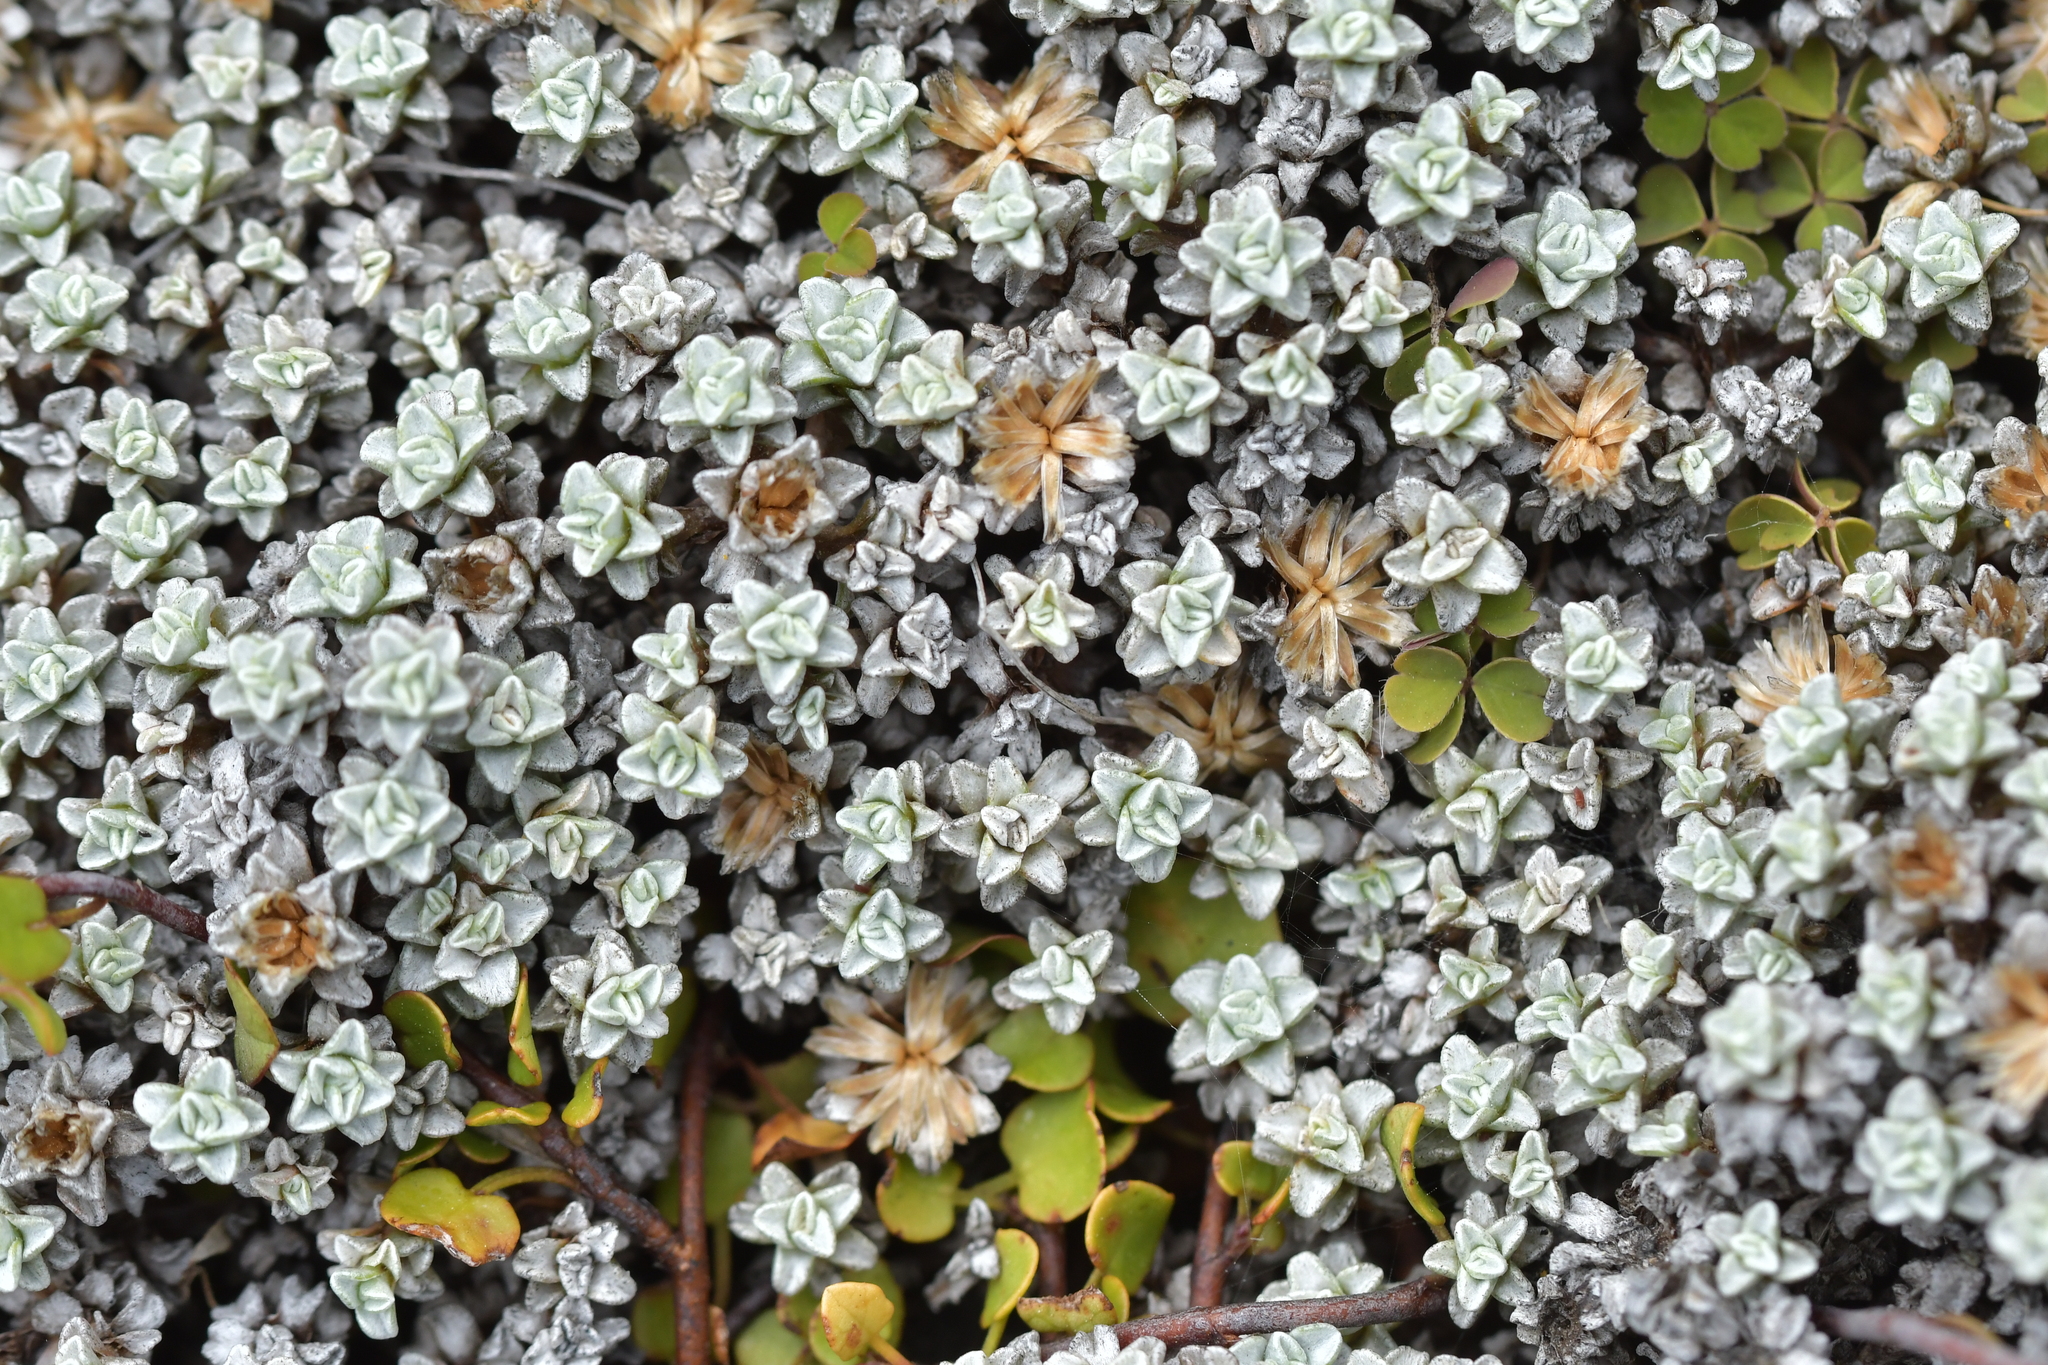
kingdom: Plantae
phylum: Tracheophyta
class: Magnoliopsida
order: Asterales
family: Asteraceae
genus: Raoulia
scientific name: Raoulia hookeri
